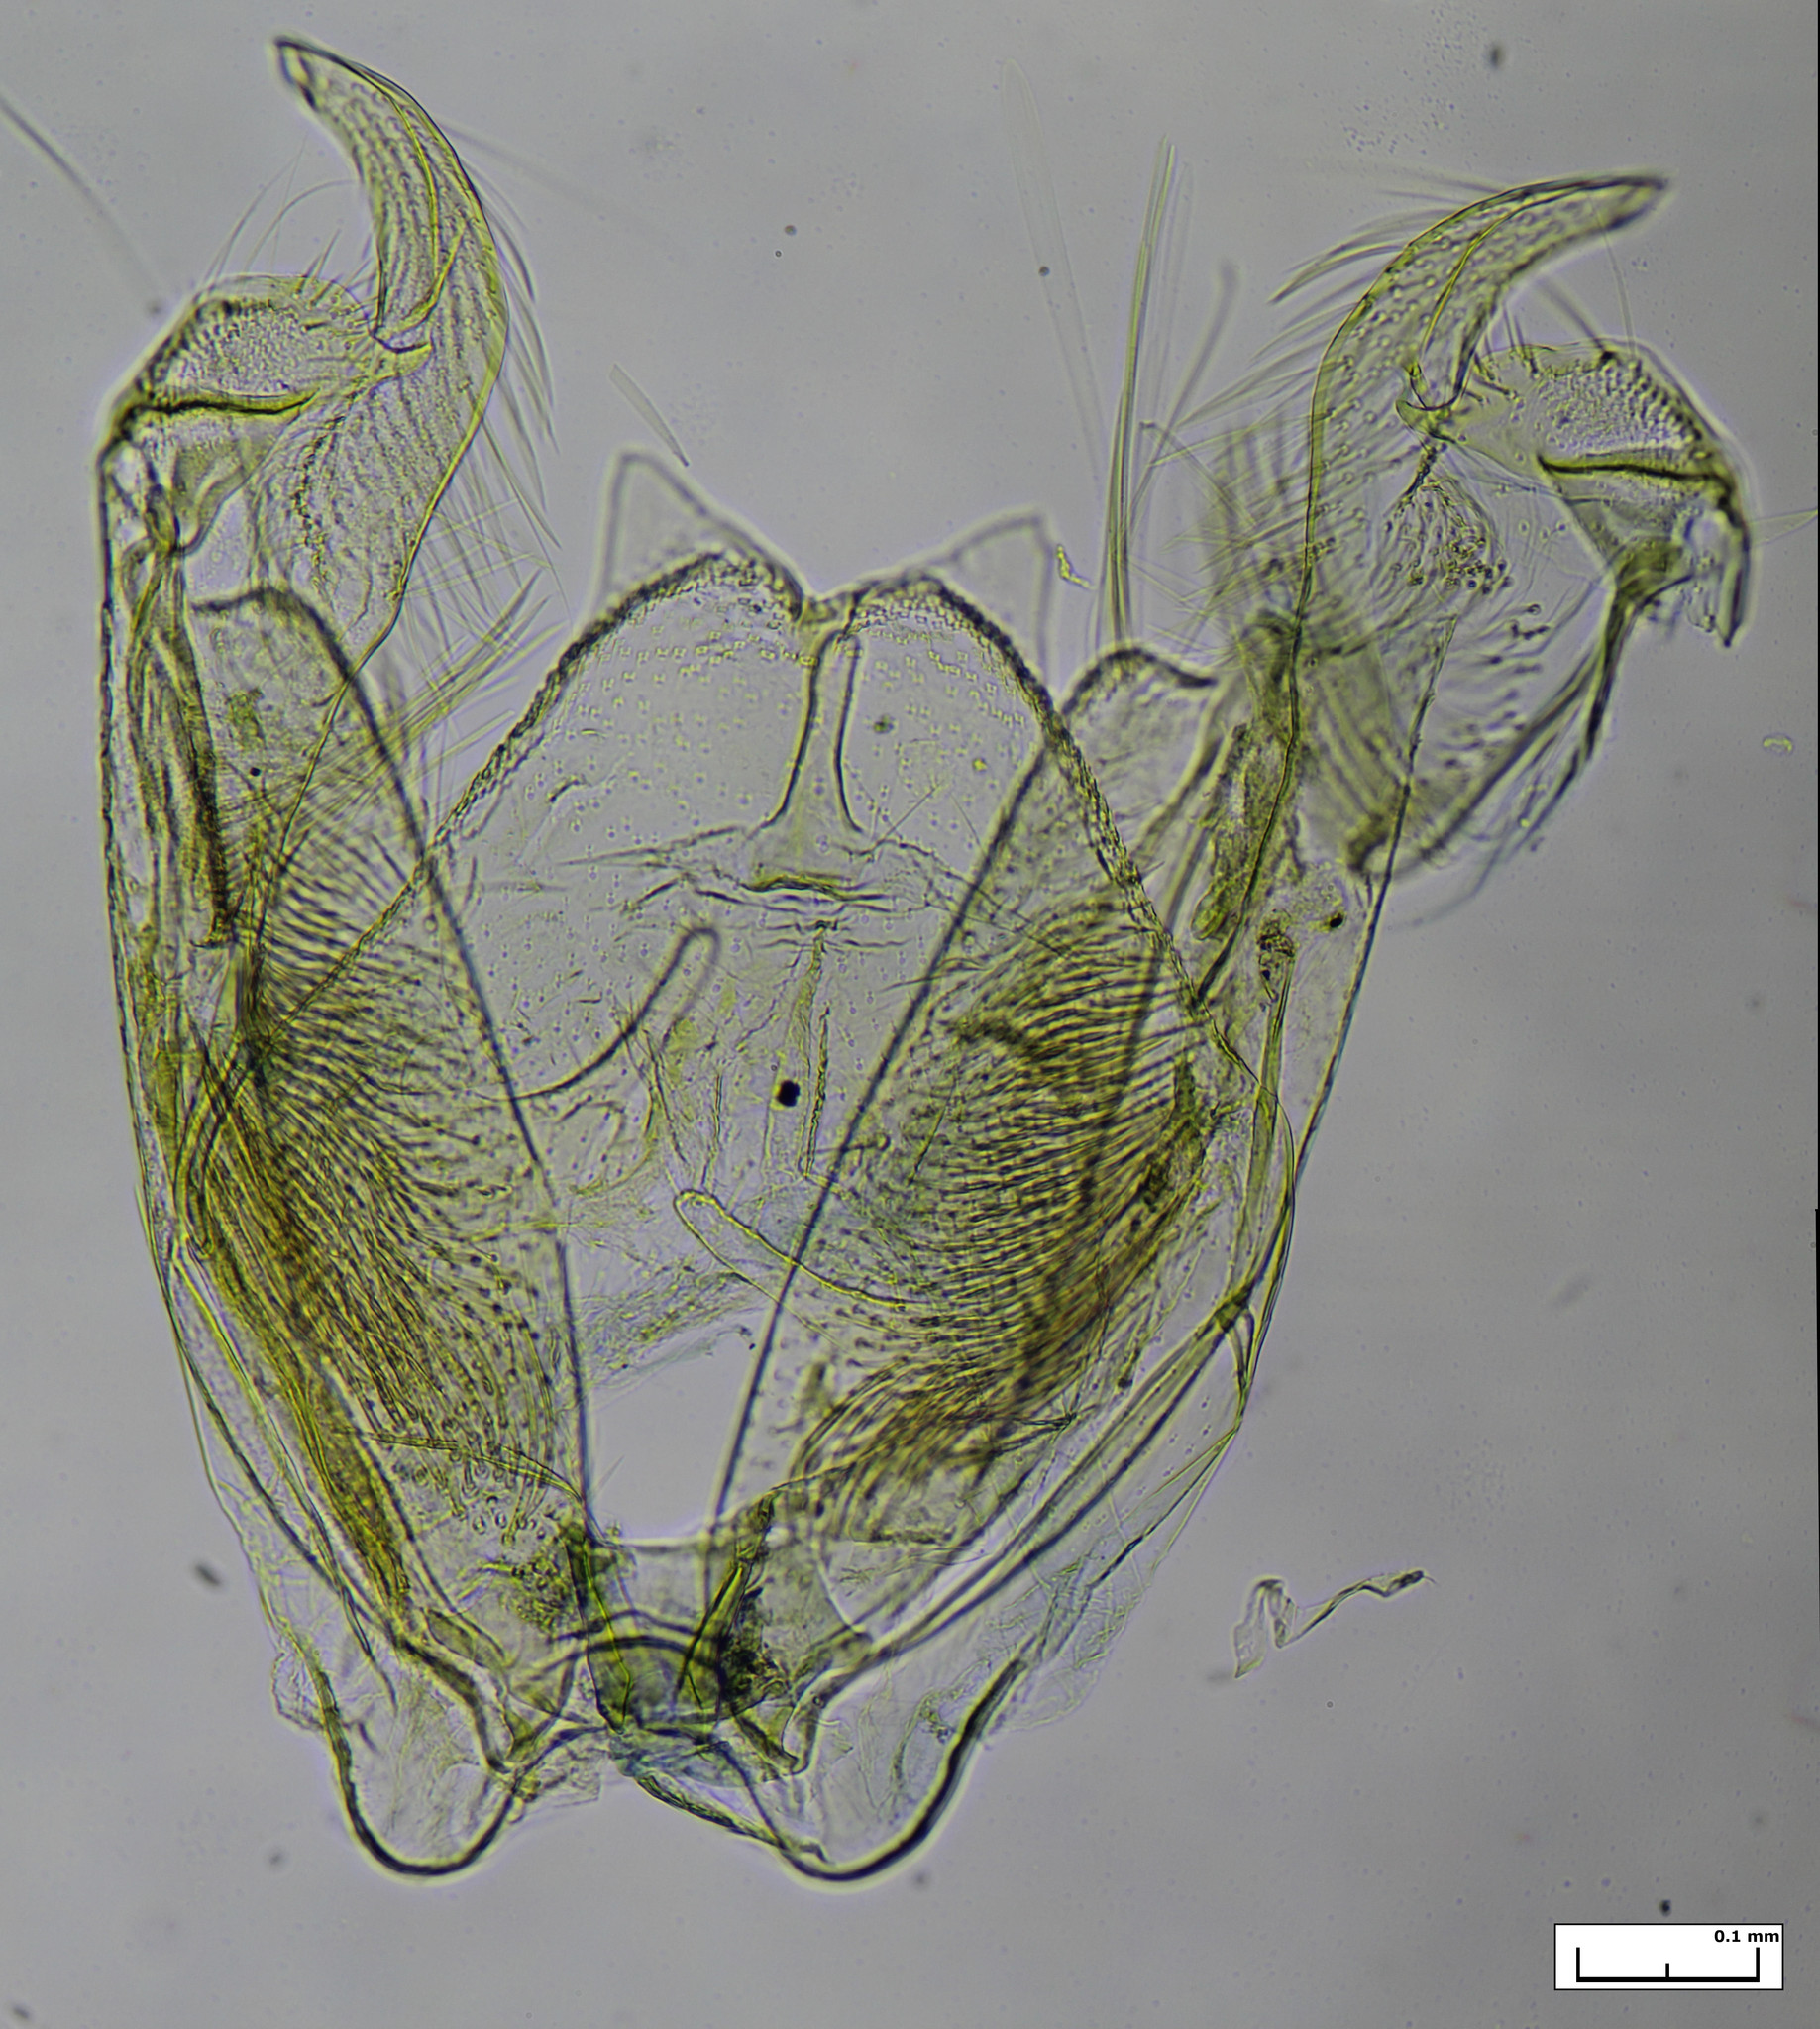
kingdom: Animalia
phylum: Arthropoda
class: Insecta
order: Lepidoptera
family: Pterophoridae
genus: Stenoptilia
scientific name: Stenoptilia zophodactylus
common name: Dowdy plume
